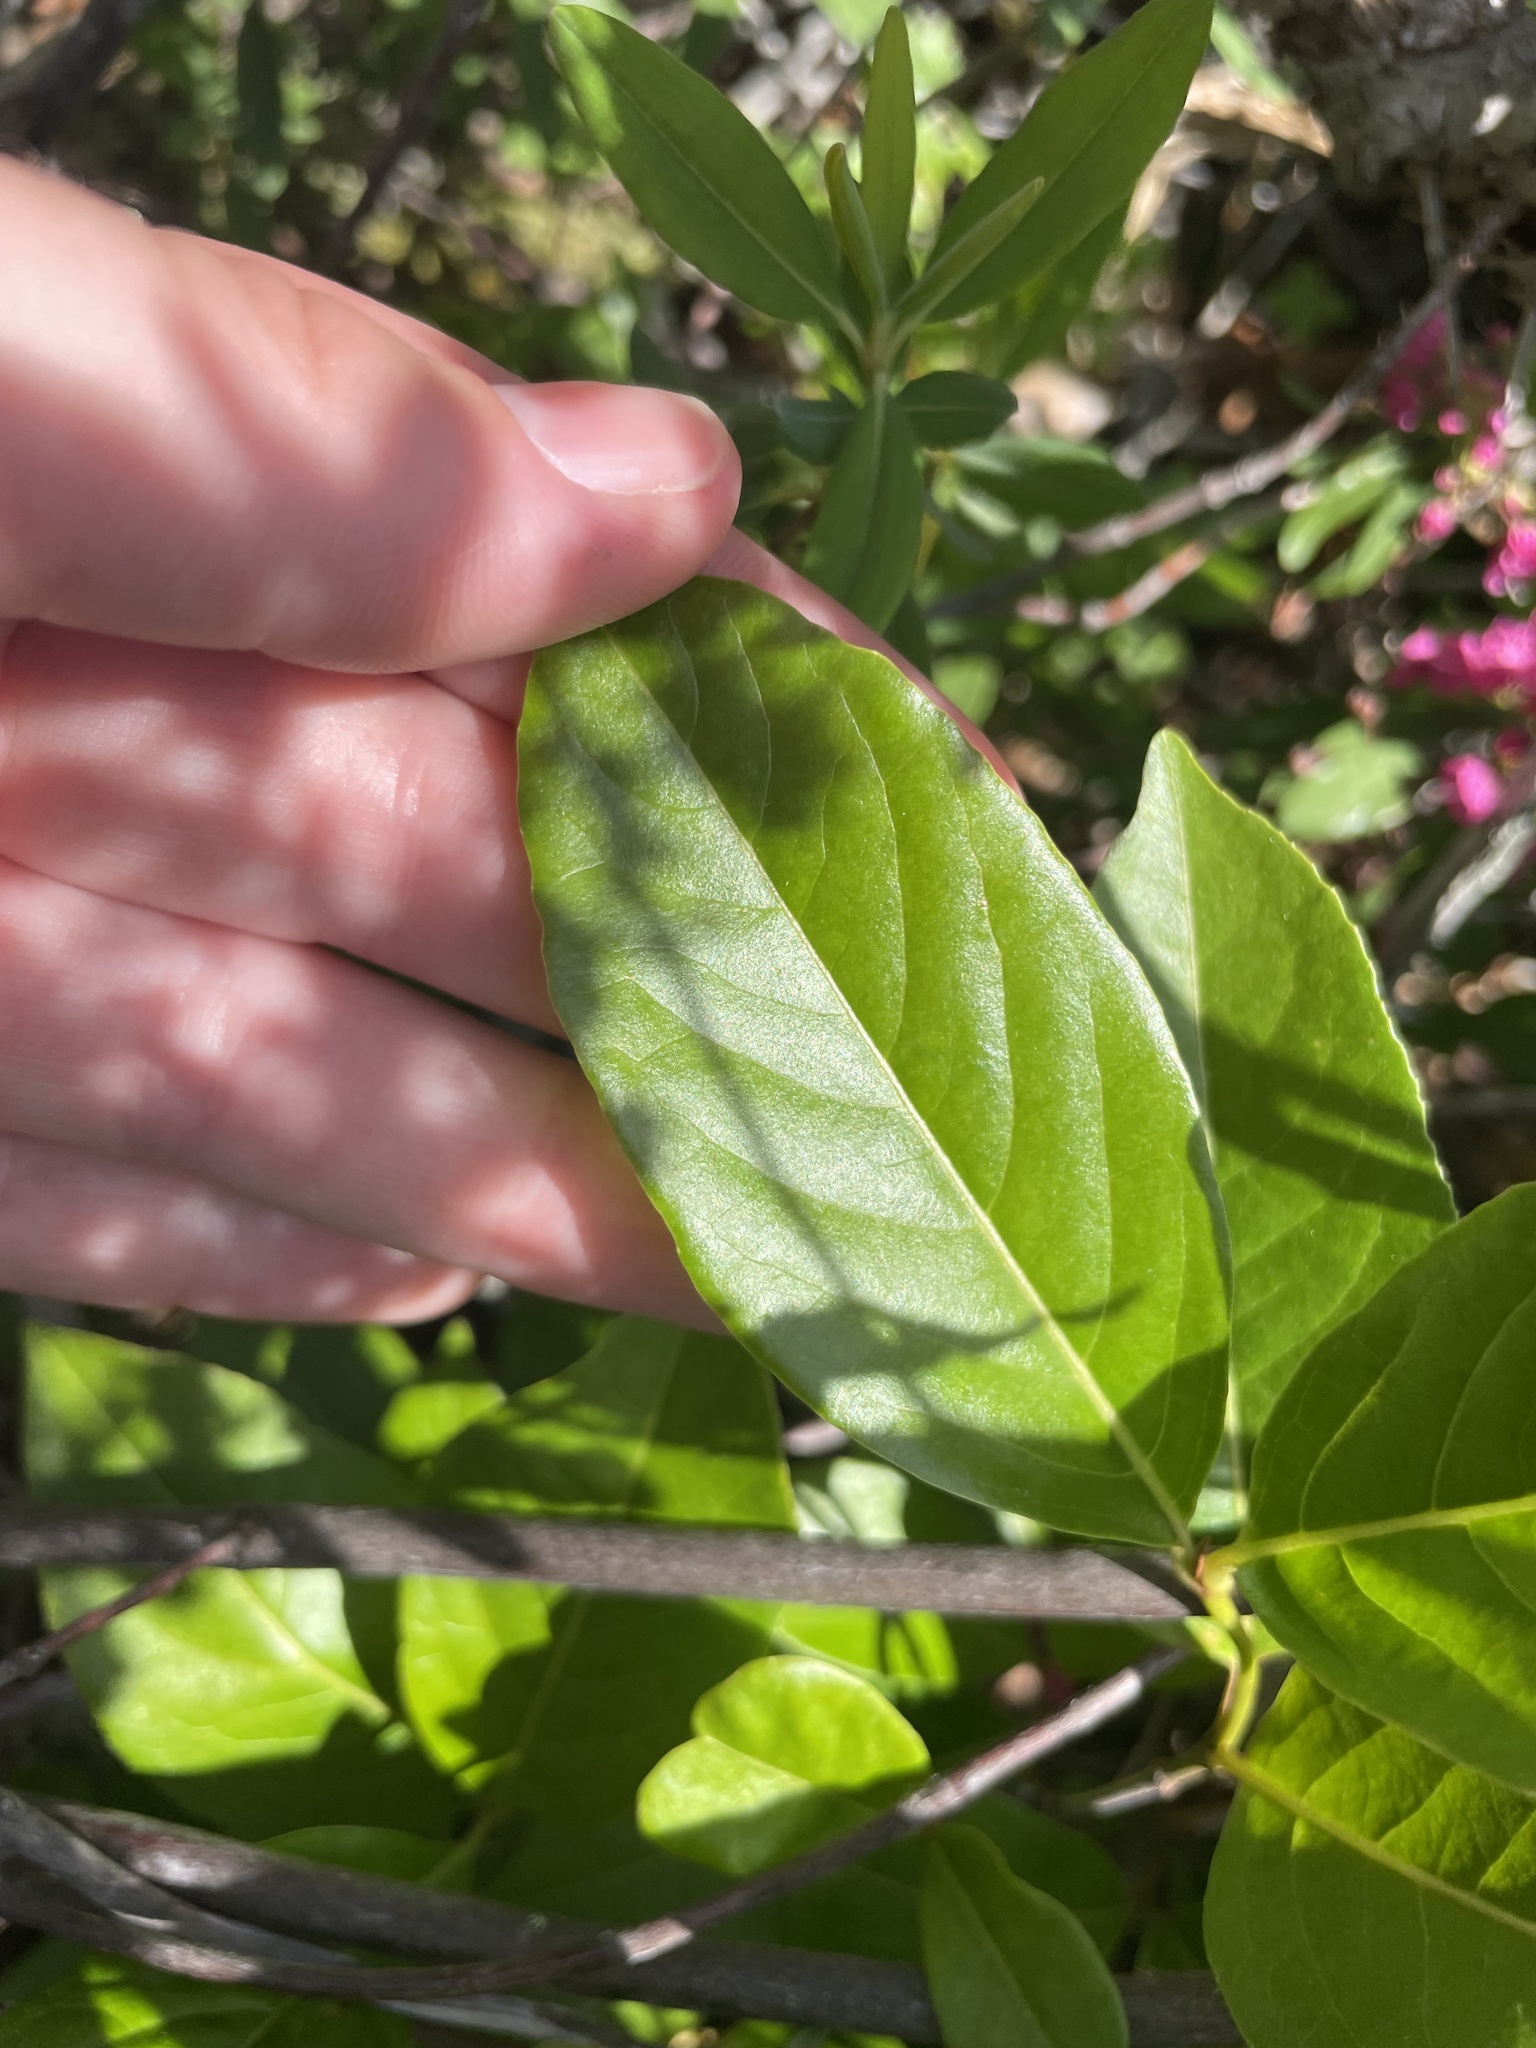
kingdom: Plantae
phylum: Tracheophyta
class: Magnoliopsida
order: Dipsacales
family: Viburnaceae
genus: Viburnum
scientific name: Viburnum cassinoides
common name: Swamp haw
